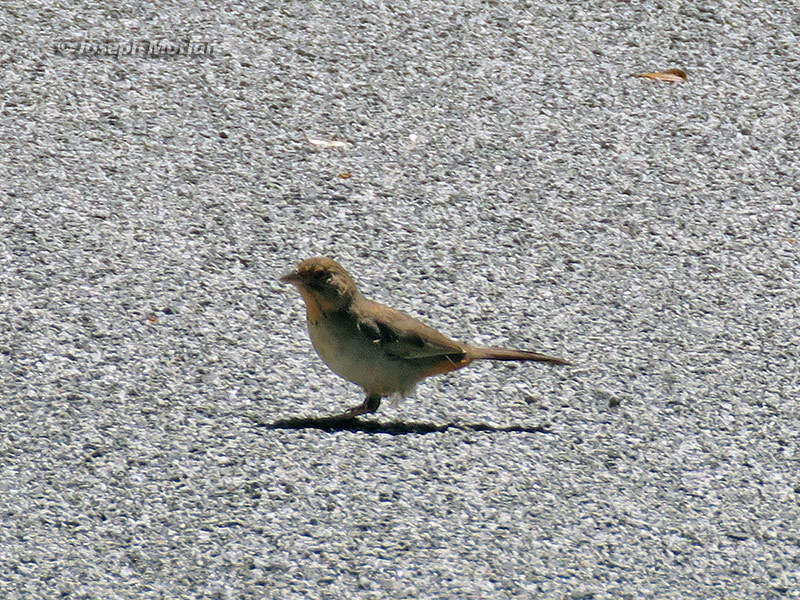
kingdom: Animalia
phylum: Chordata
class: Aves
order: Passeriformes
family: Passerellidae
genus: Melozone
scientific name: Melozone crissalis
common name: California towhee
